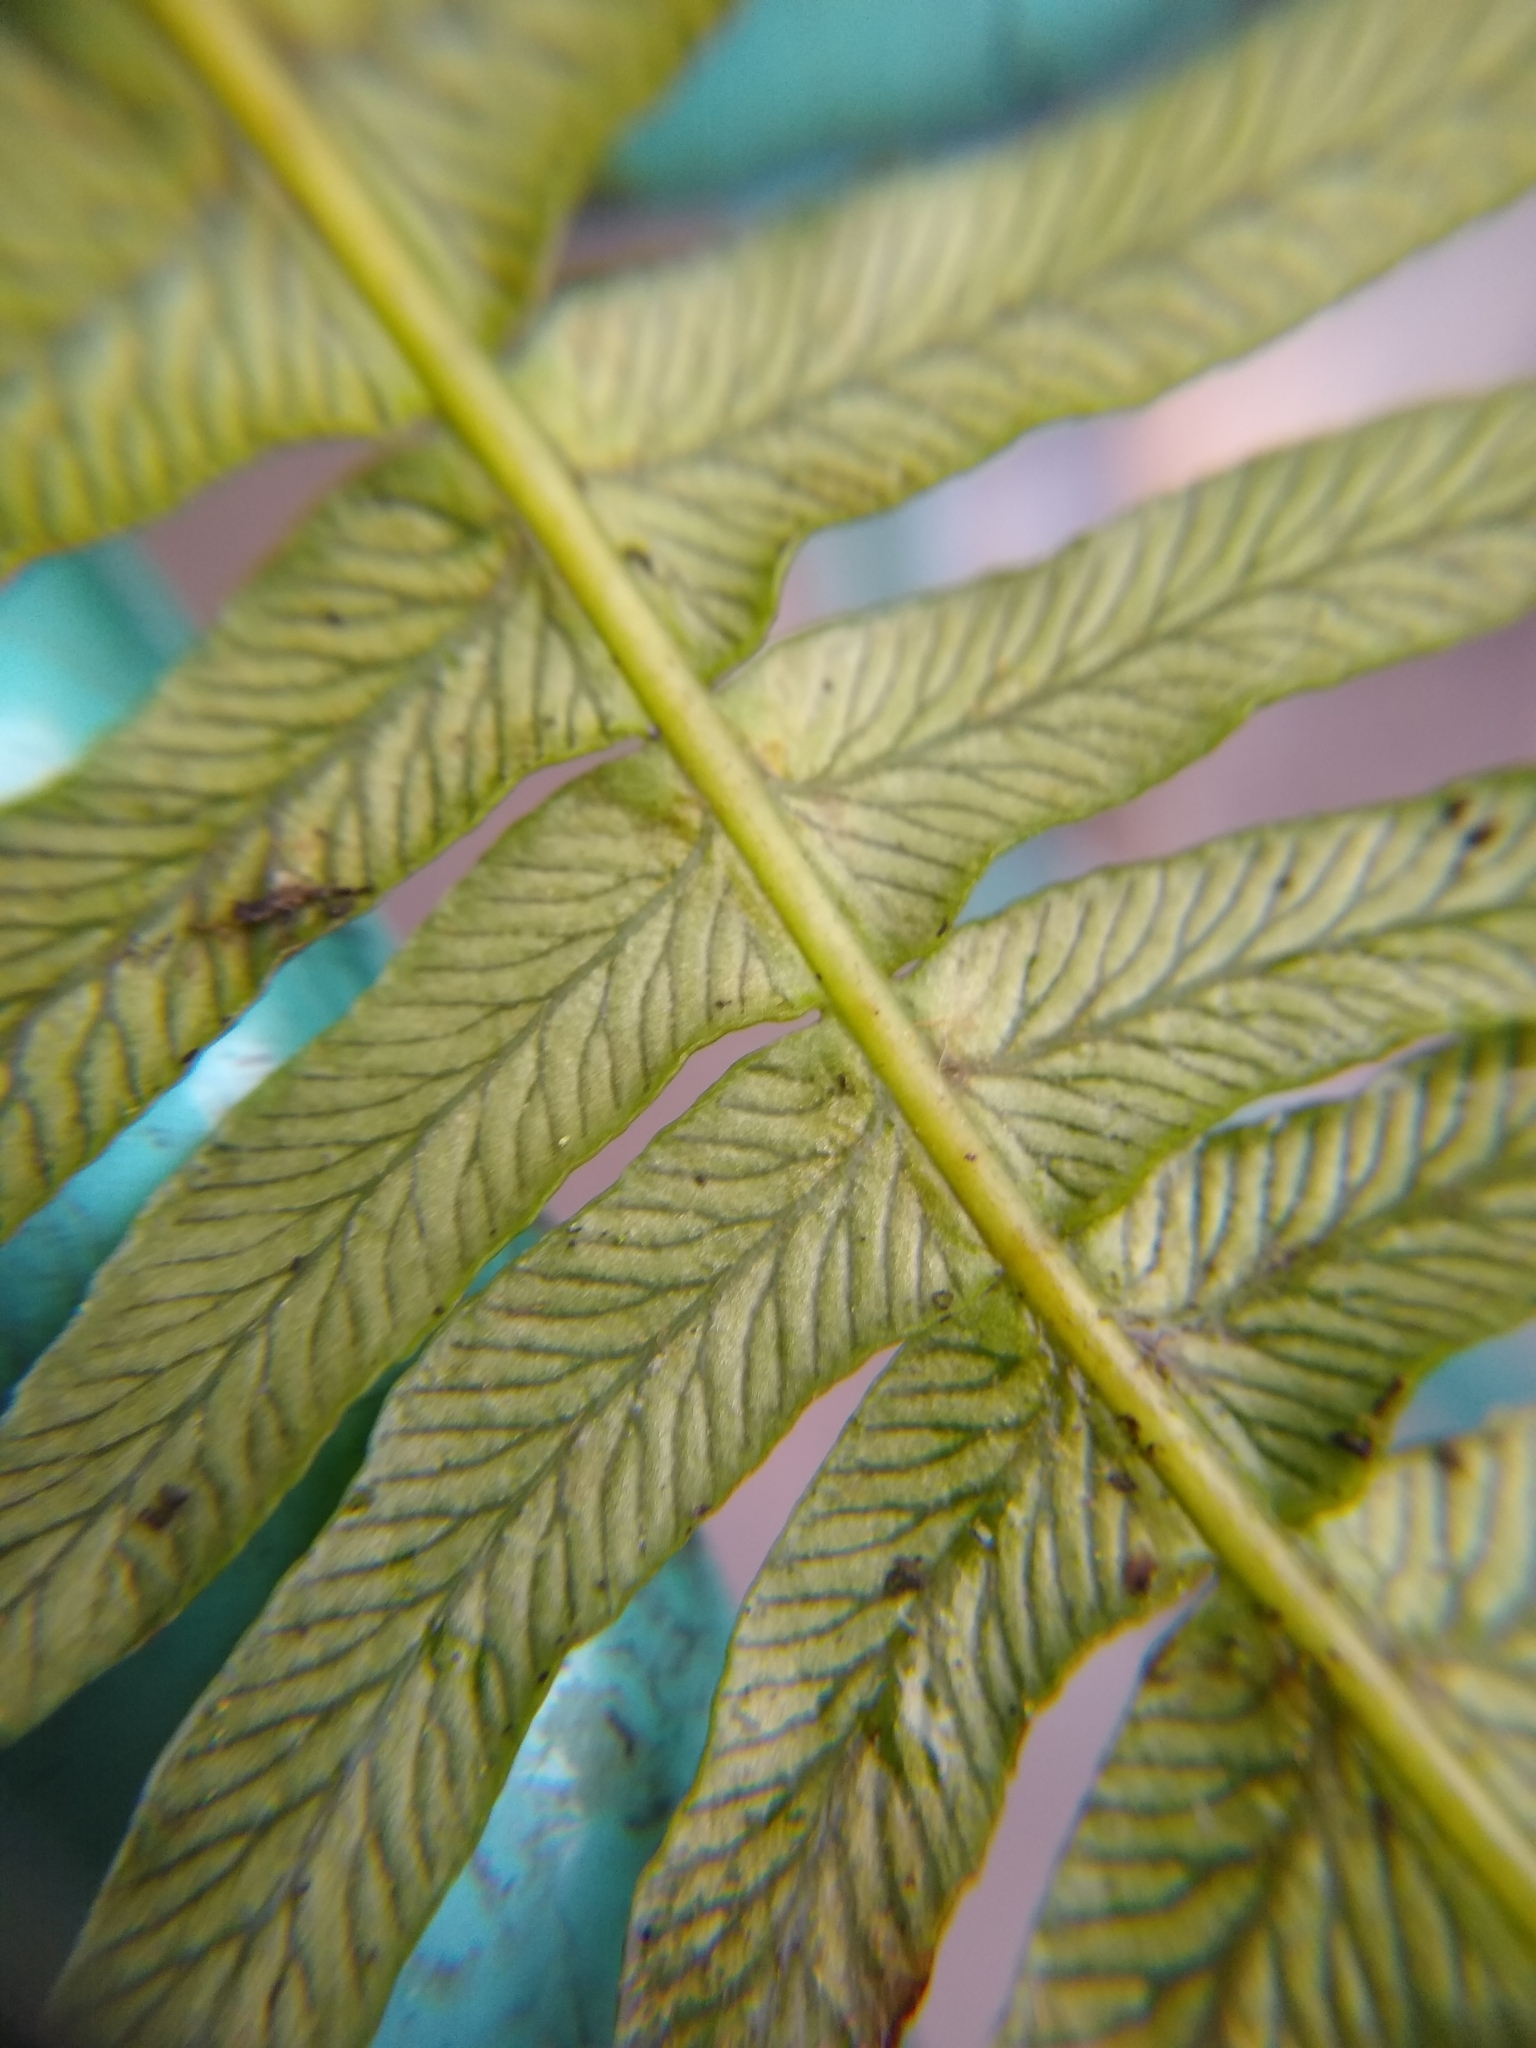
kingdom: Plantae
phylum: Tracheophyta
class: Polypodiopsida
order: Polypodiales
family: Blechnaceae
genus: Struthiopteris
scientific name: Struthiopteris spicant
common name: Deer fern
